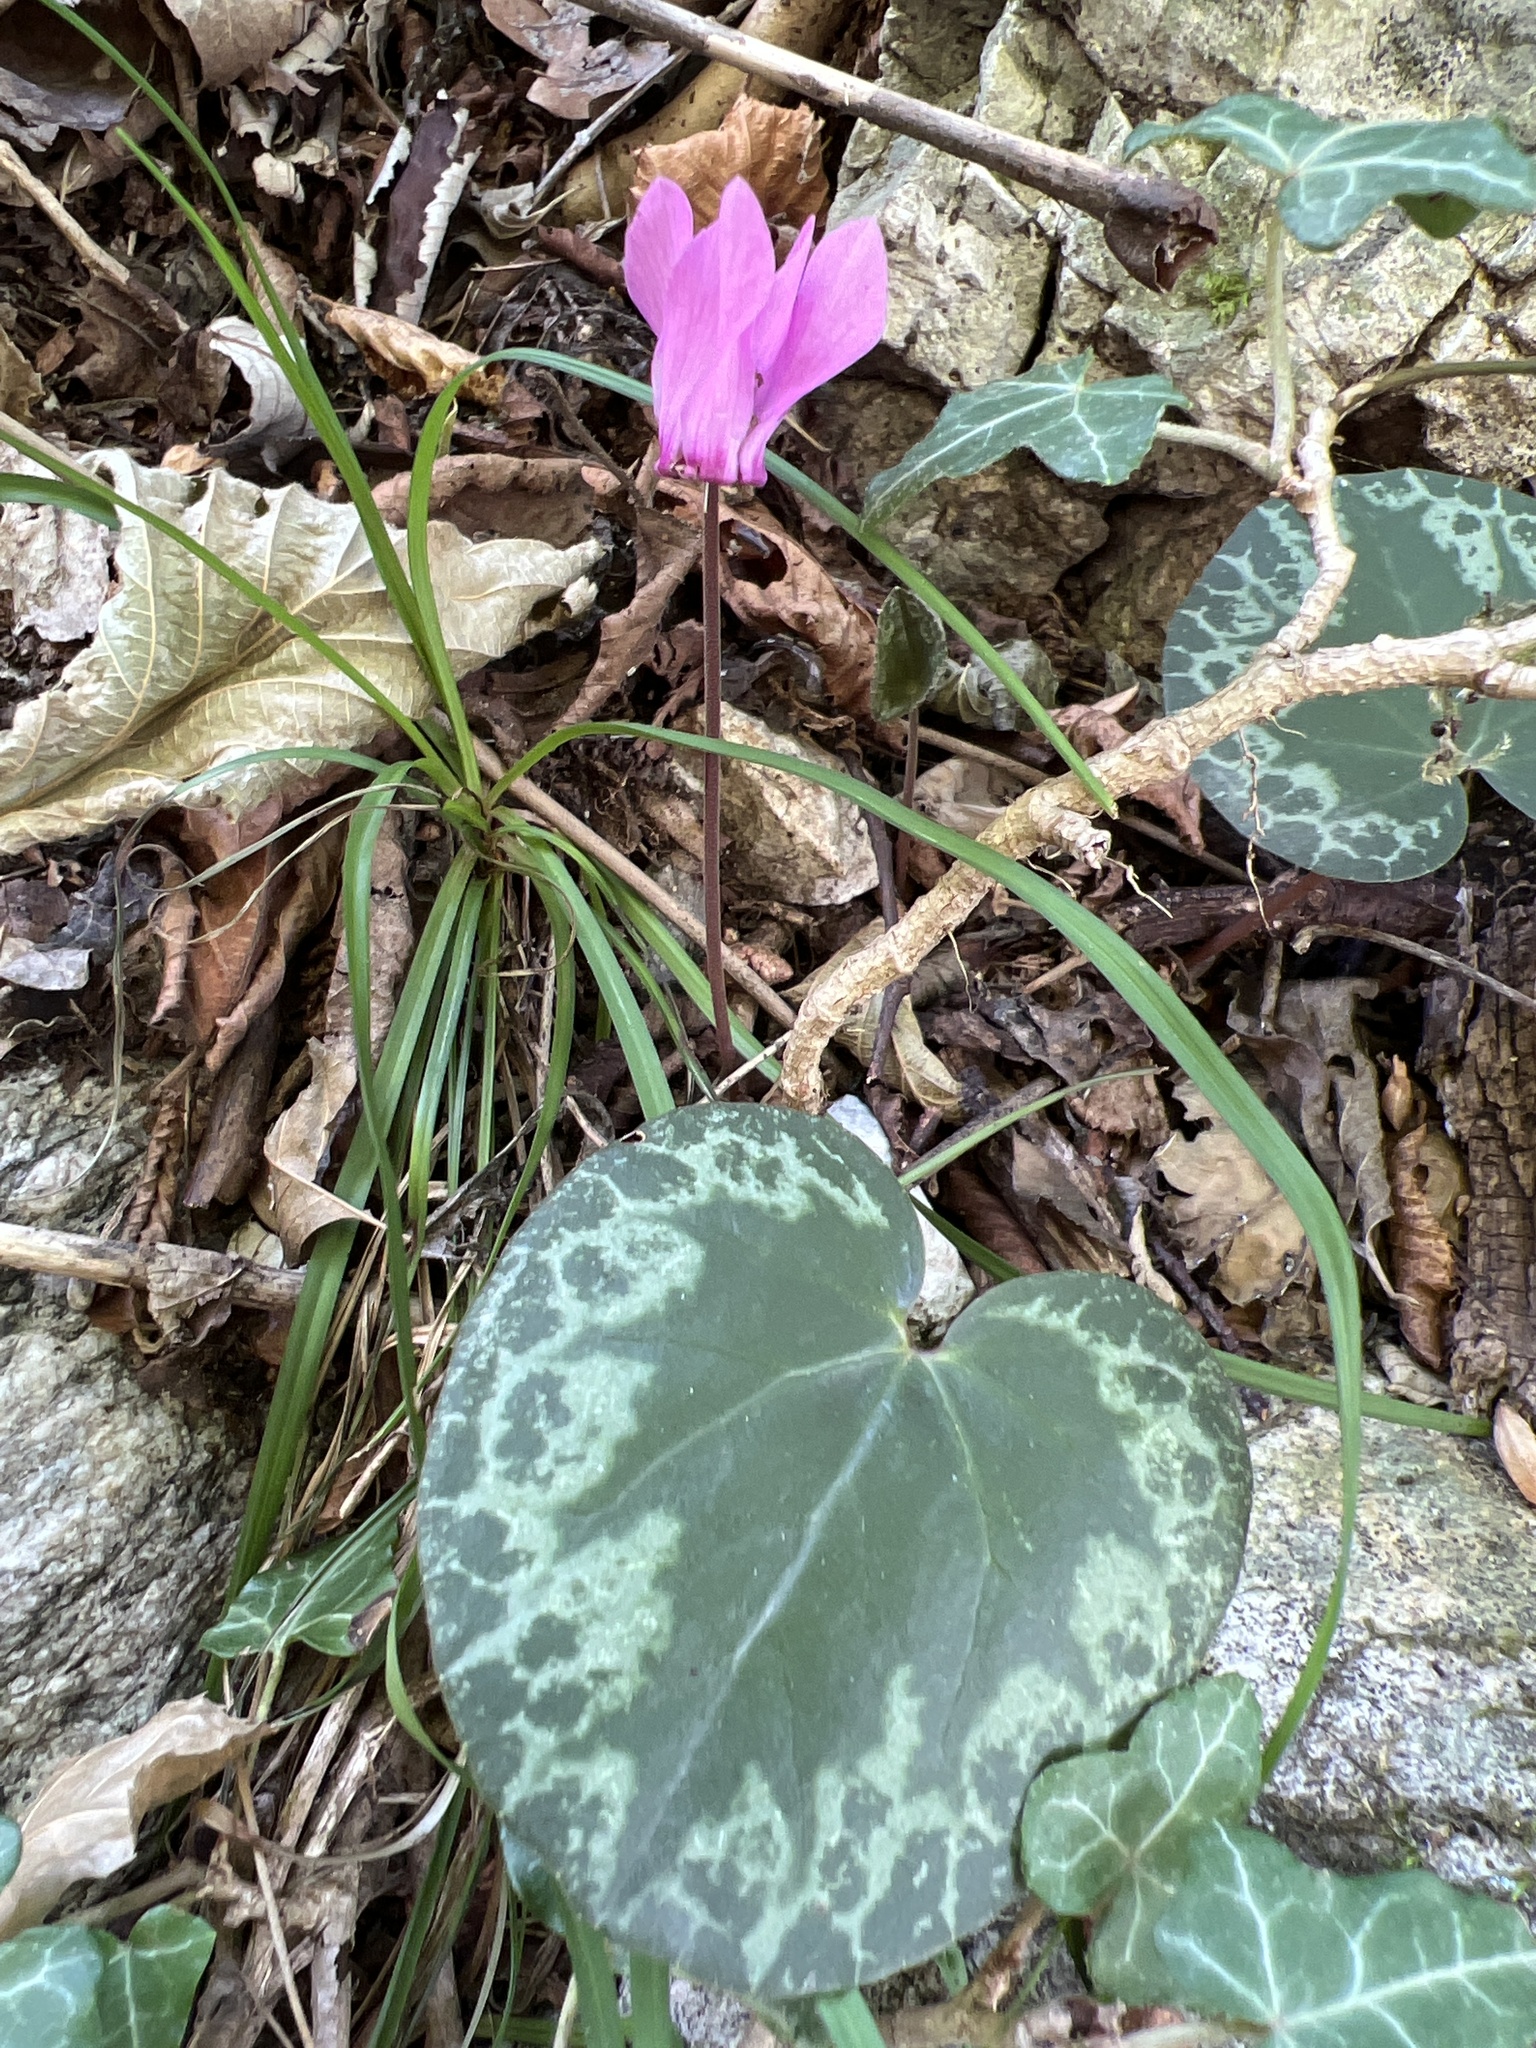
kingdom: Plantae
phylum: Tracheophyta
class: Magnoliopsida
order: Ericales
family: Primulaceae
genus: Cyclamen
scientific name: Cyclamen purpurascens
